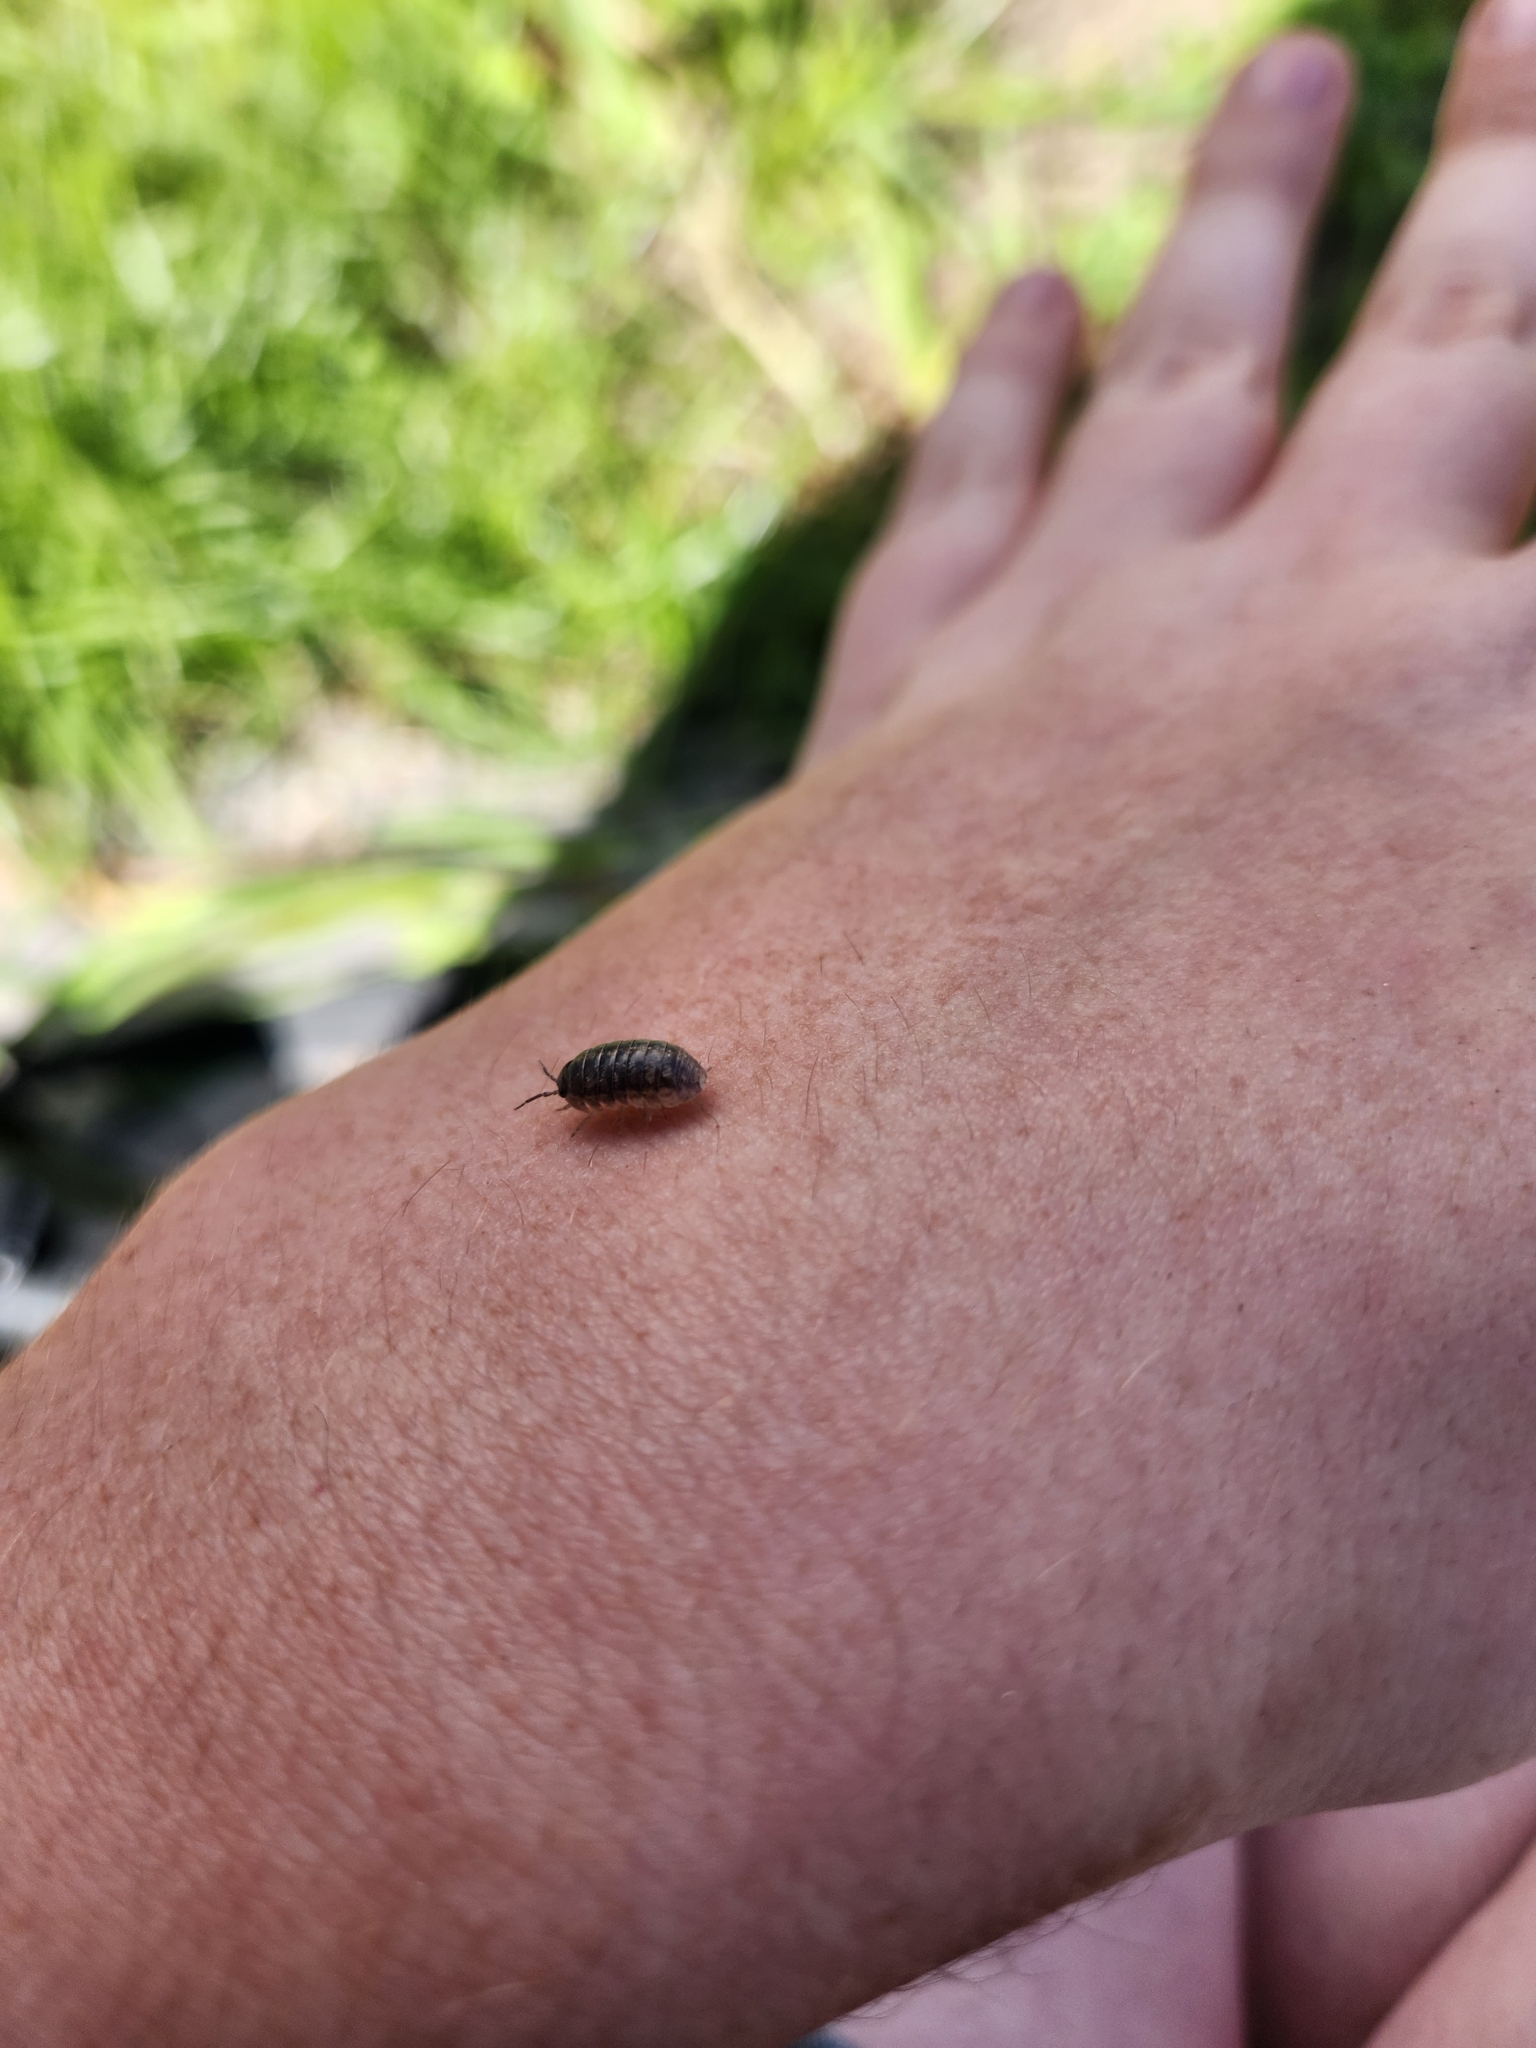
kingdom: Animalia
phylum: Arthropoda
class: Malacostraca
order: Isopoda
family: Armadillidiidae
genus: Armadillidium
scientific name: Armadillidium vulgare
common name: Common pill woodlouse
